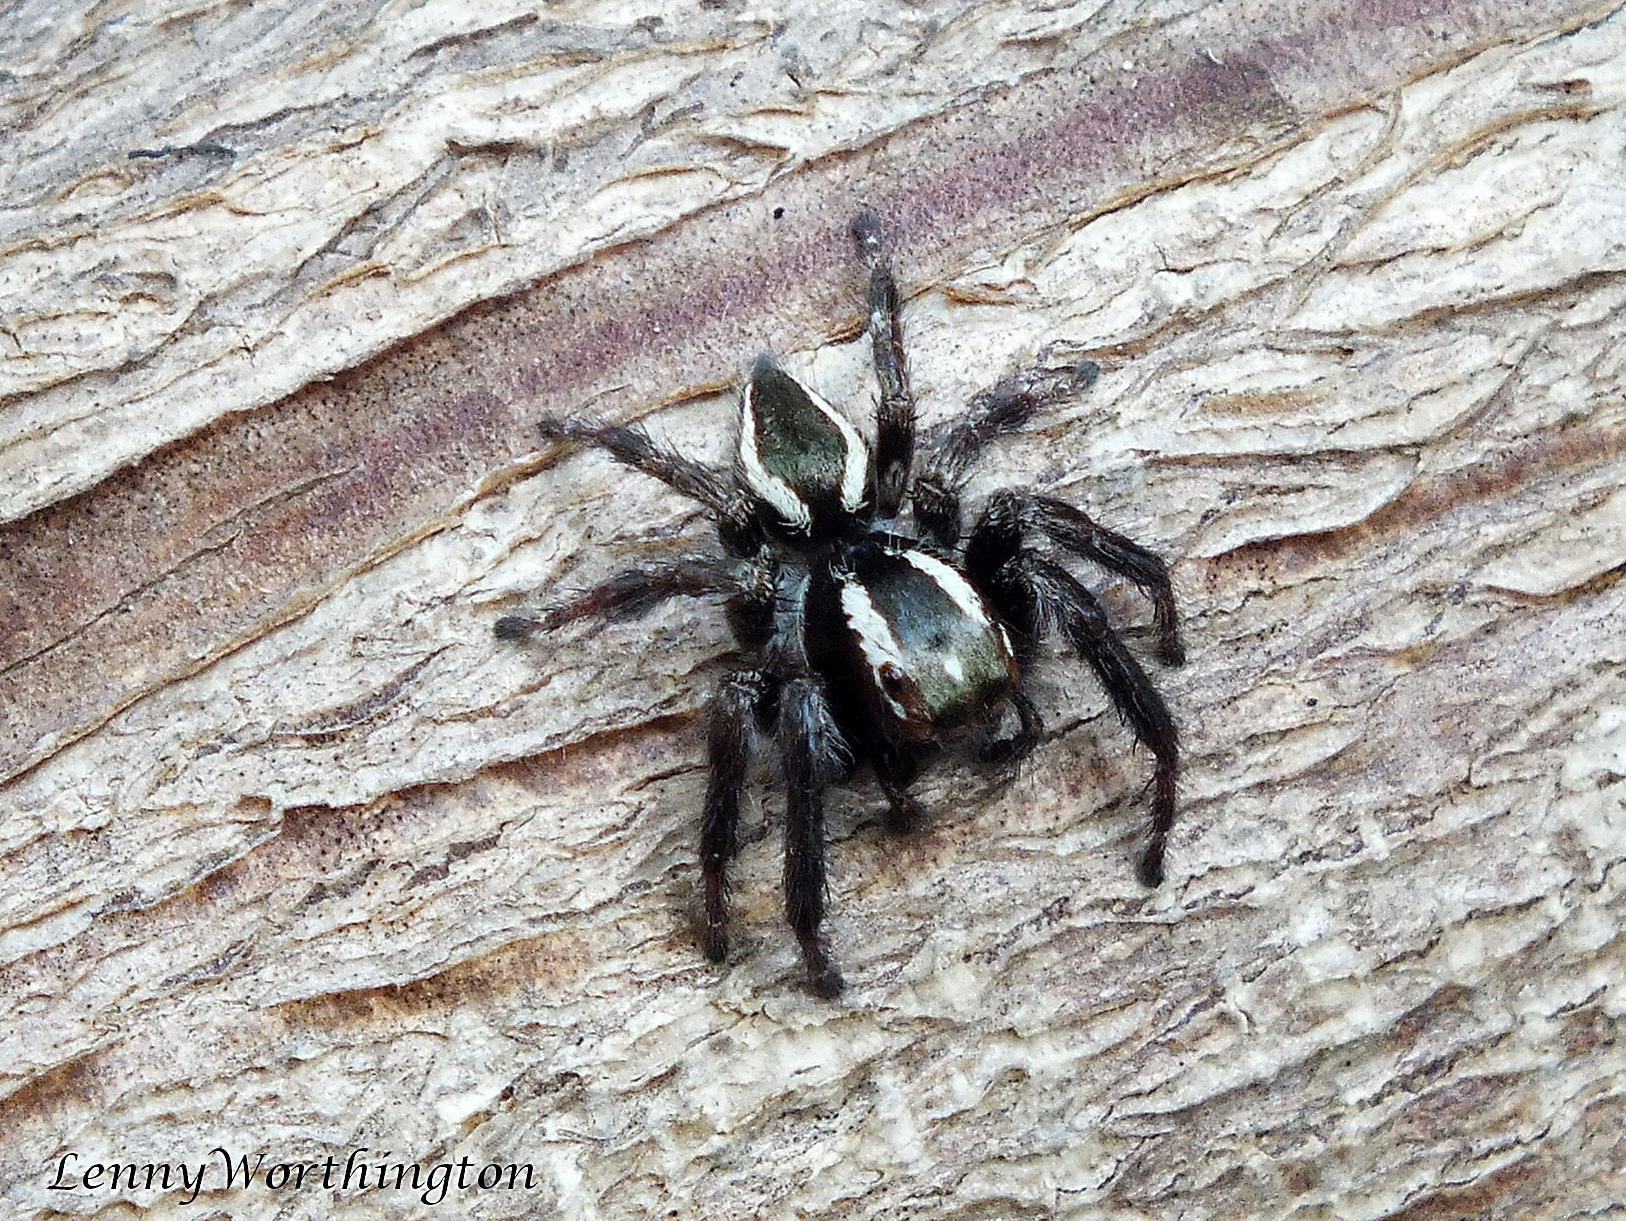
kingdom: Animalia
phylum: Arthropoda
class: Arachnida
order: Araneae
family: Salticidae
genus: Carrhotus
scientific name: Carrhotus viduus
